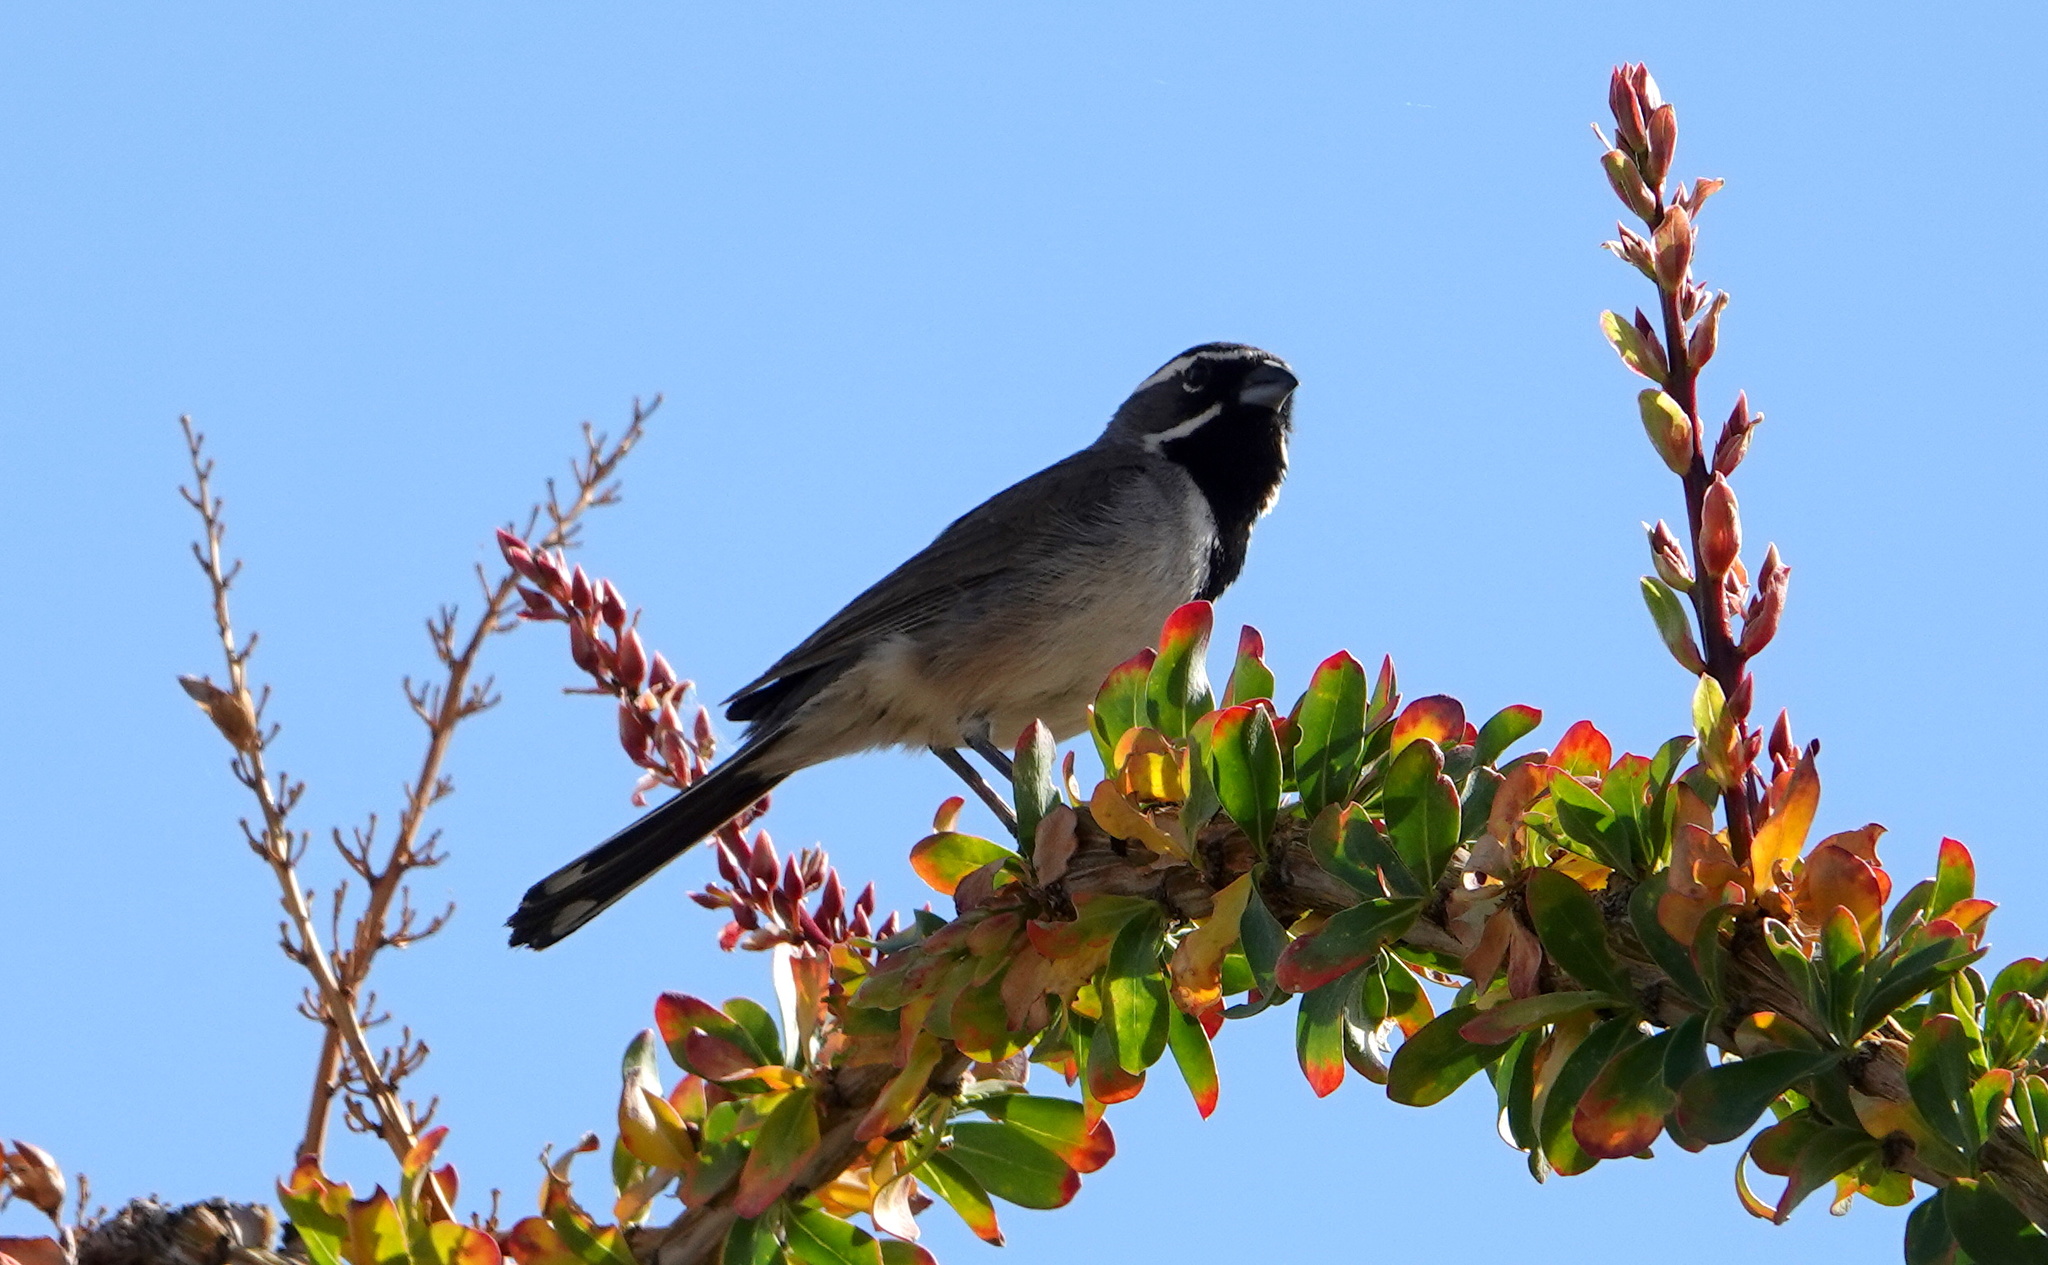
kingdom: Animalia
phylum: Chordata
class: Aves
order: Passeriformes
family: Passerellidae
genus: Amphispiza
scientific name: Amphispiza bilineata
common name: Black-throated sparrow
